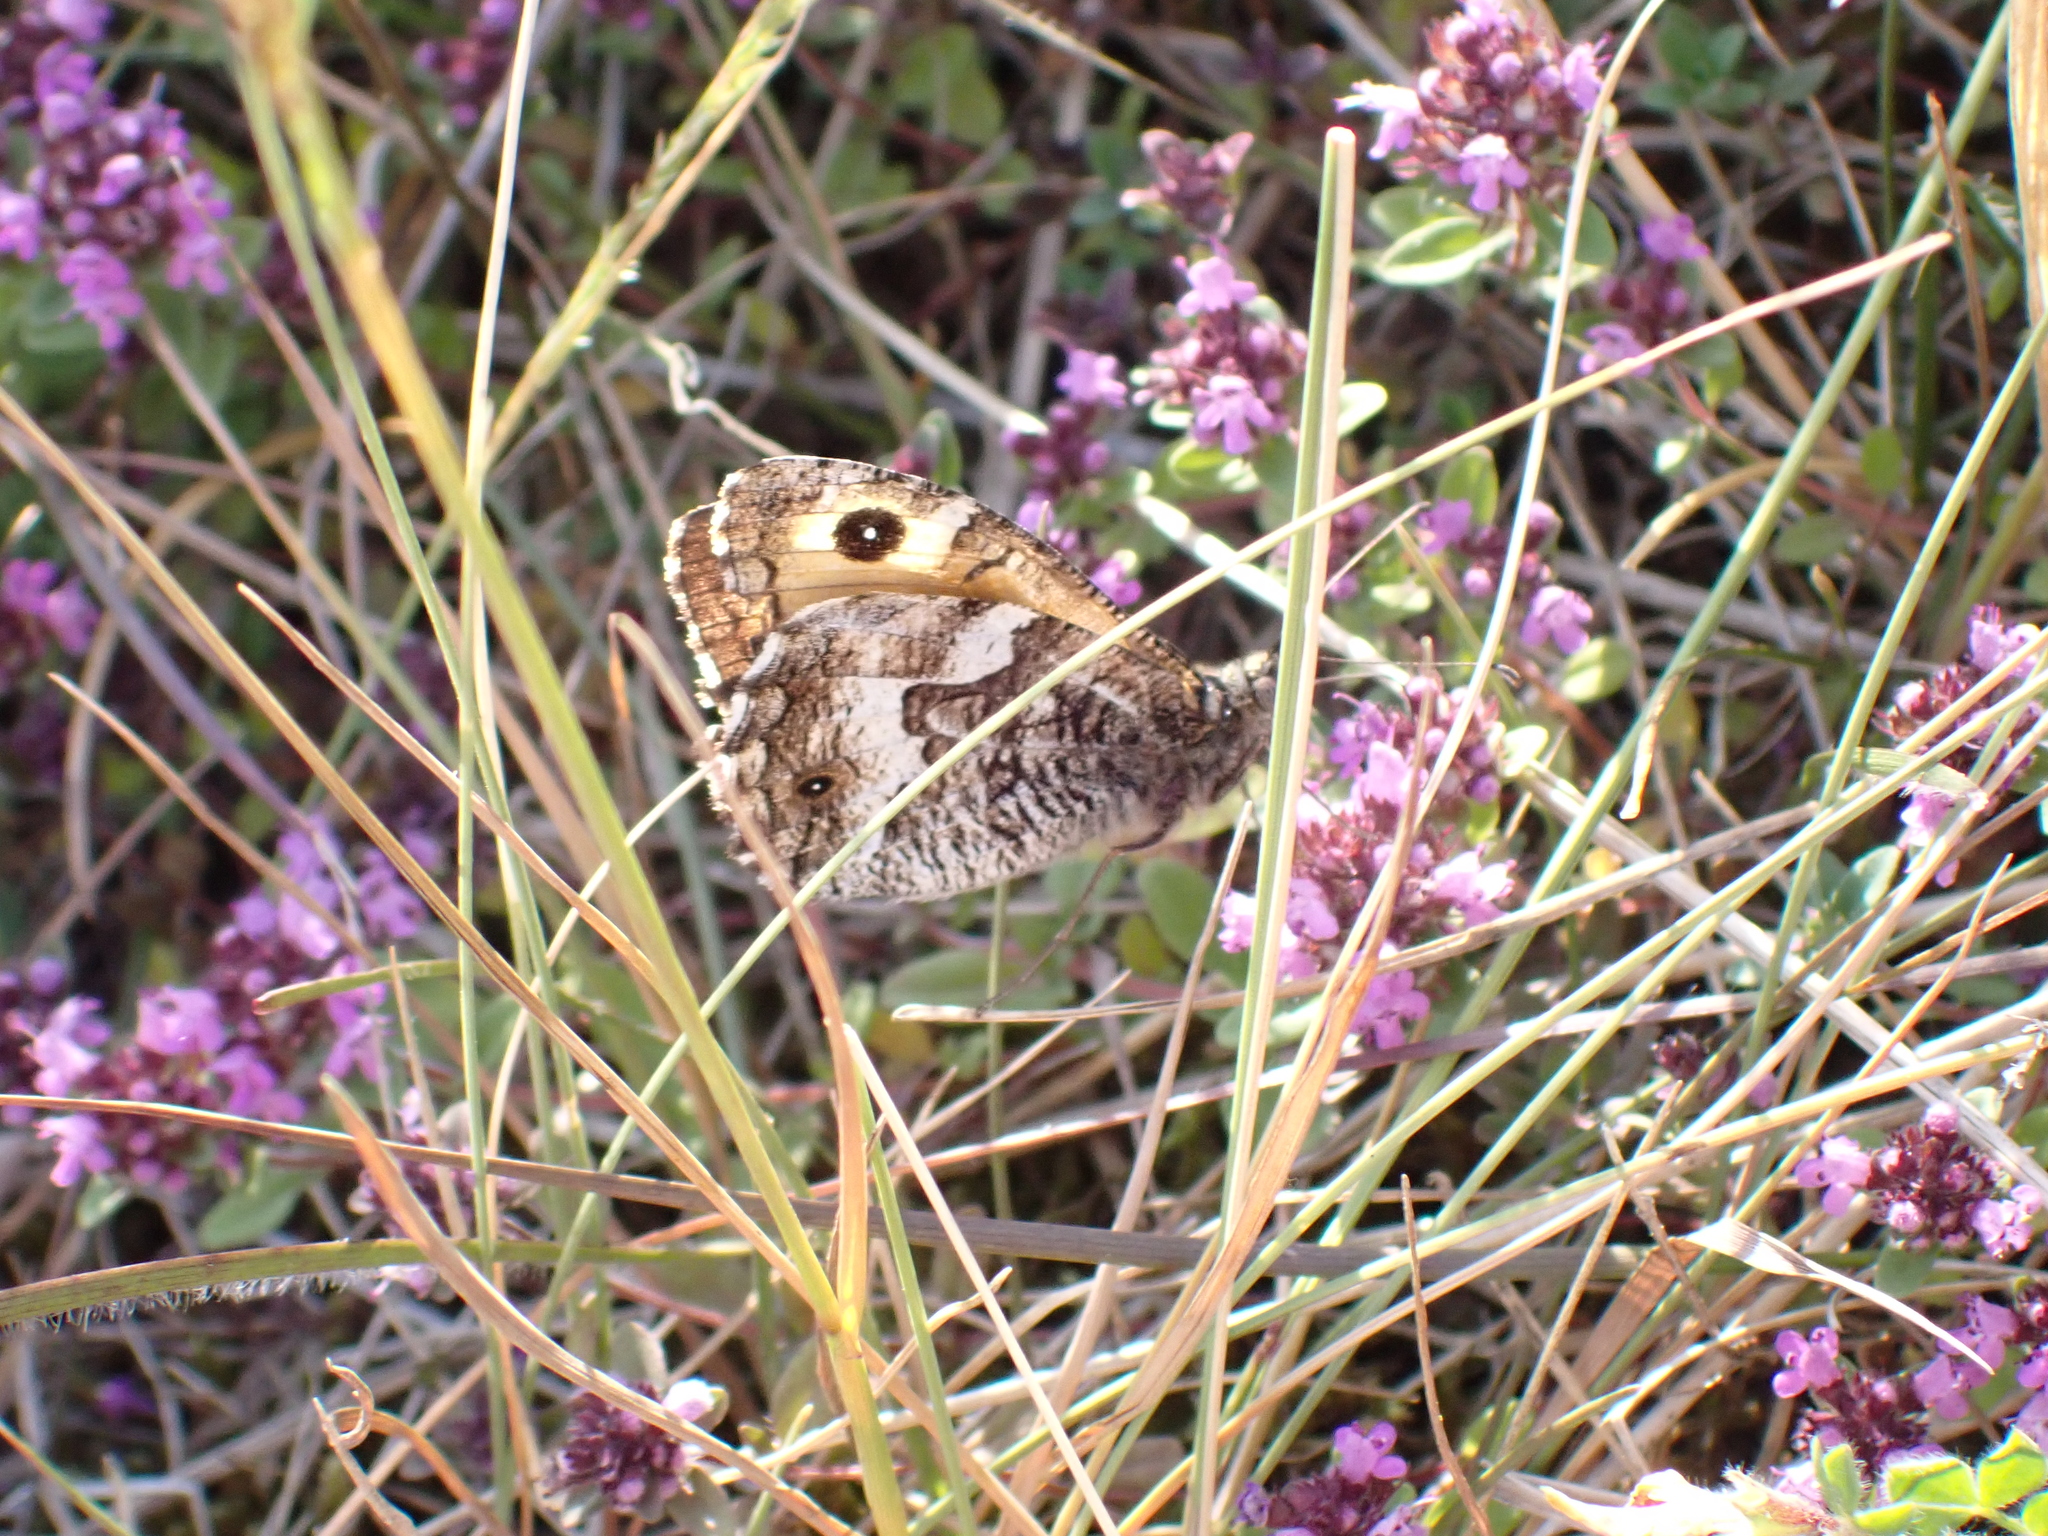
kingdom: Animalia
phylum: Arthropoda
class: Insecta
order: Lepidoptera
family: Nymphalidae
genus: Hipparchia
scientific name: Hipparchia semele
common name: Grayling
